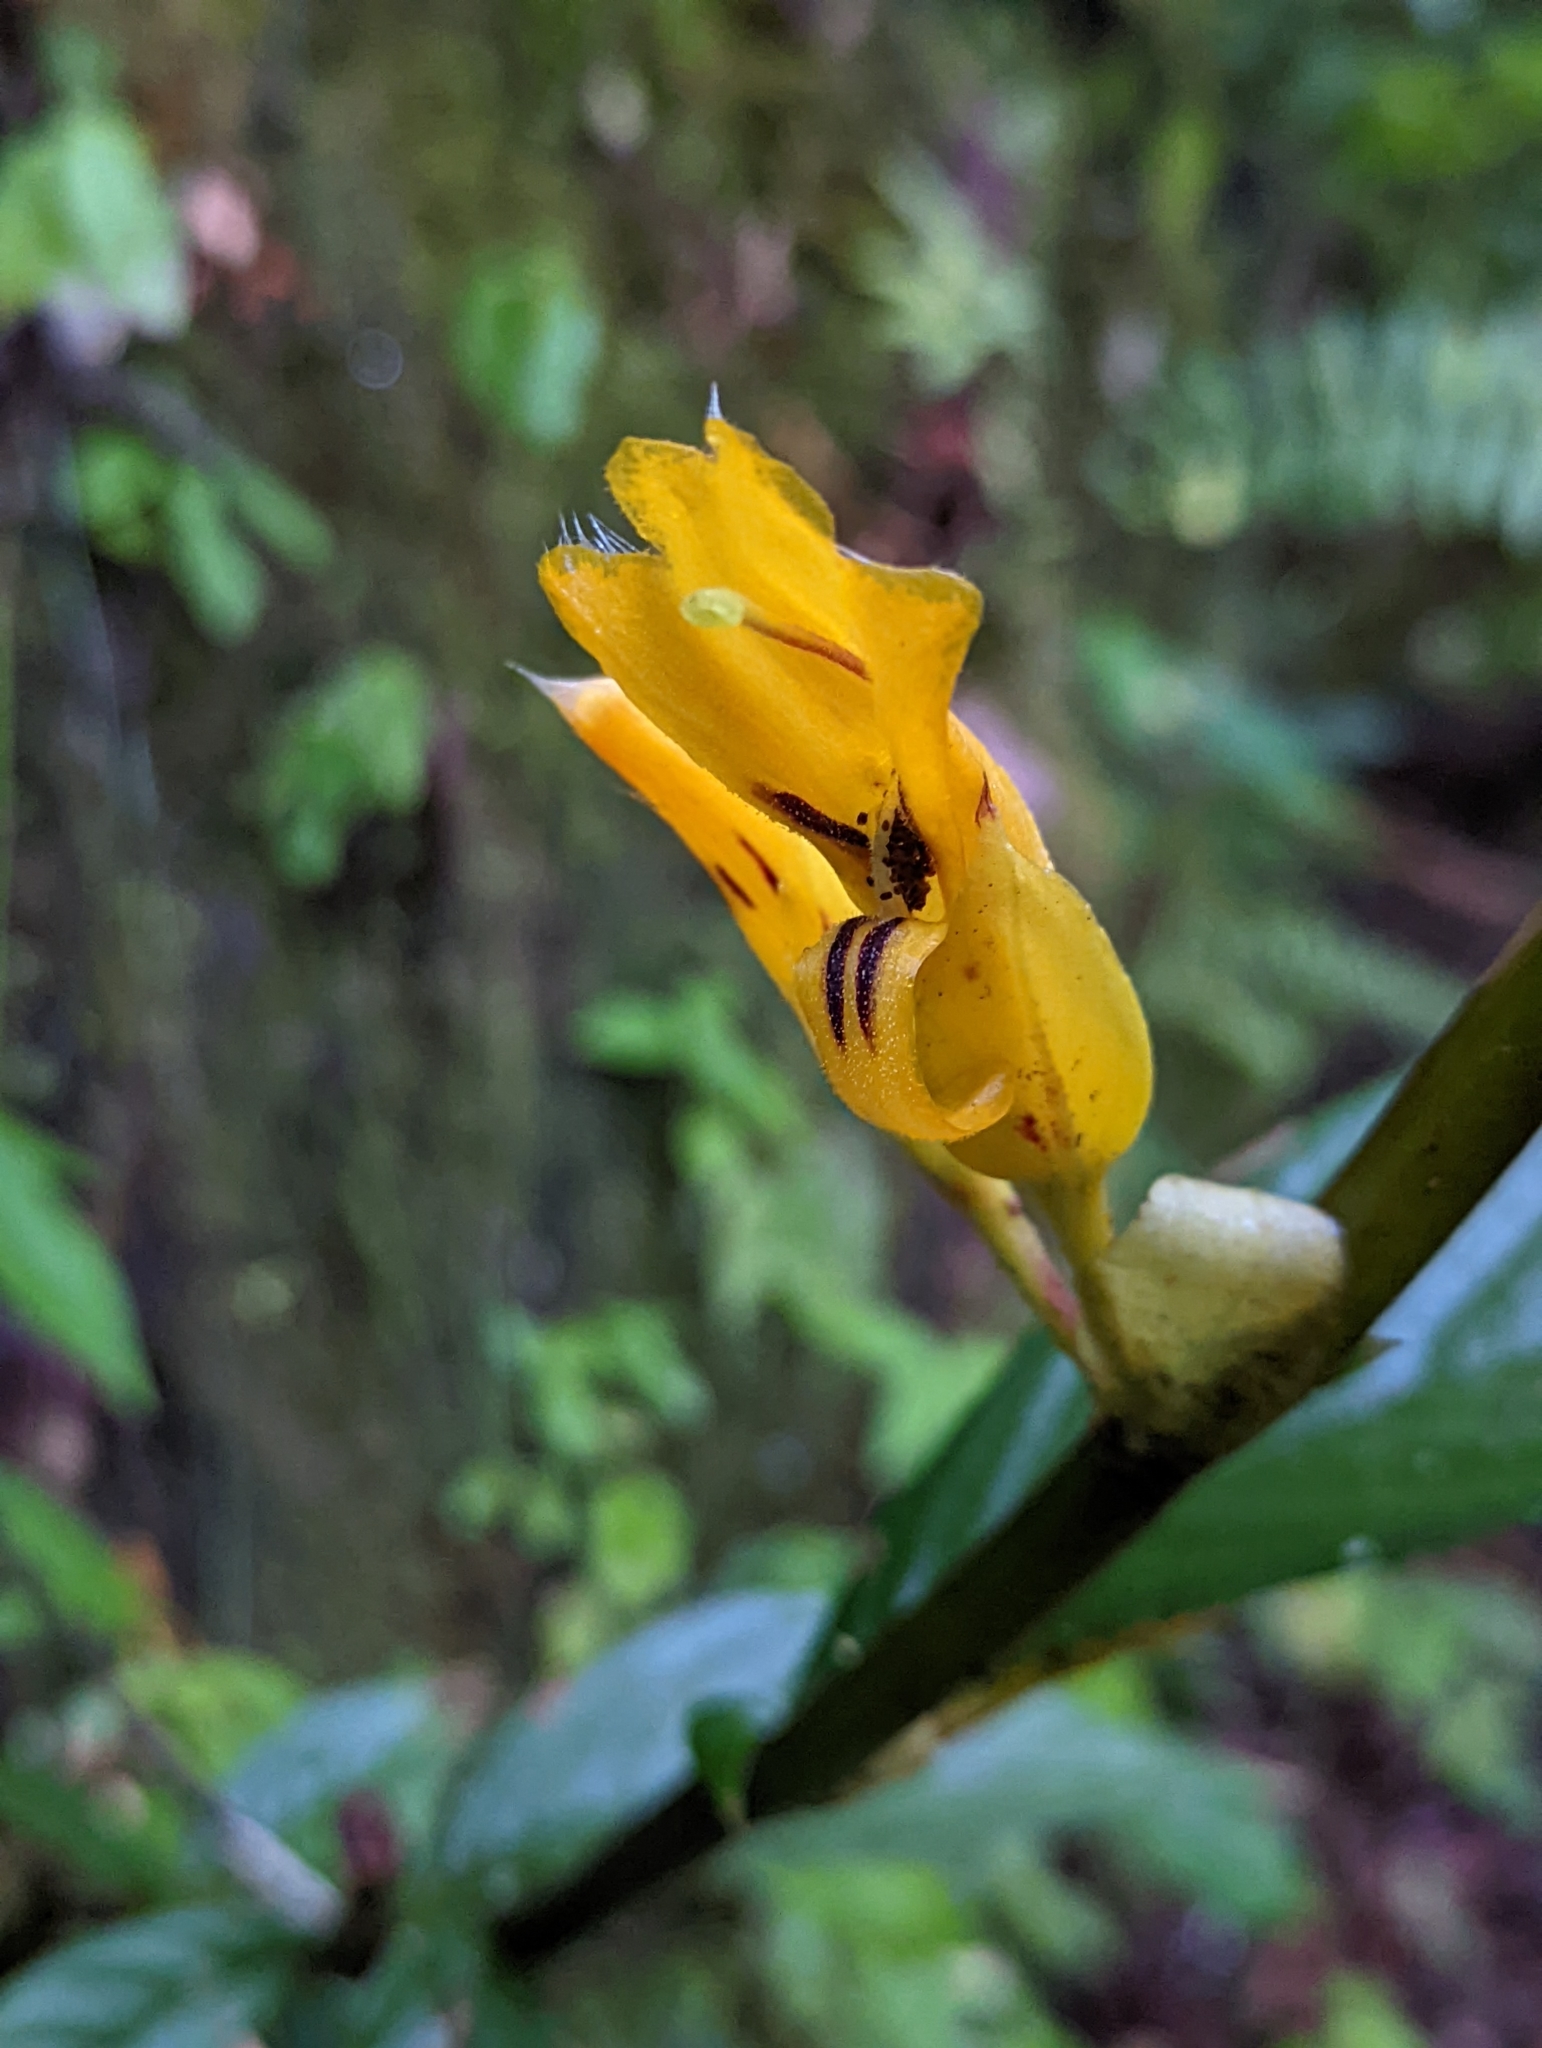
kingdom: Plantae
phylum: Tracheophyta
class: Magnoliopsida
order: Lamiales
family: Gesneriaceae
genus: Columnea
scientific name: Columnea ericae
